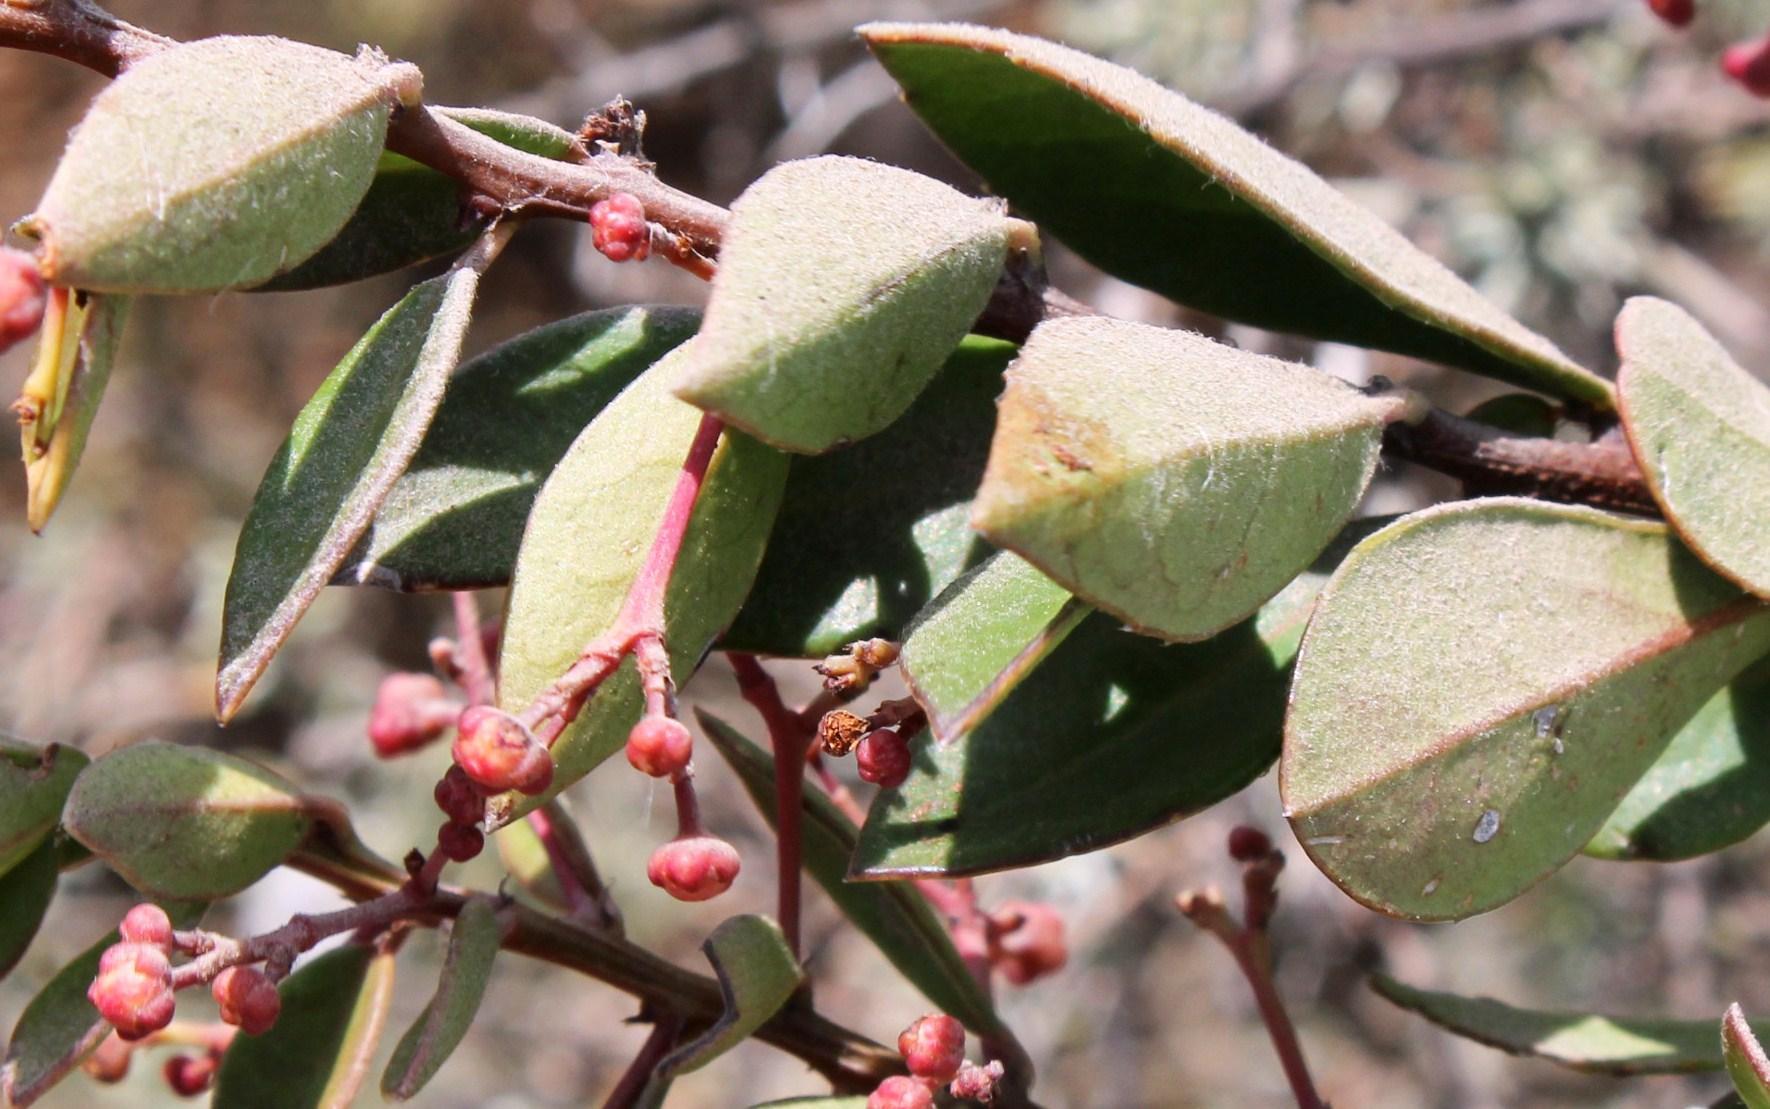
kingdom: Plantae
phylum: Tracheophyta
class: Magnoliopsida
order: Celastrales
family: Celastraceae
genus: Putterlickia
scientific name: Putterlickia pyracantha
